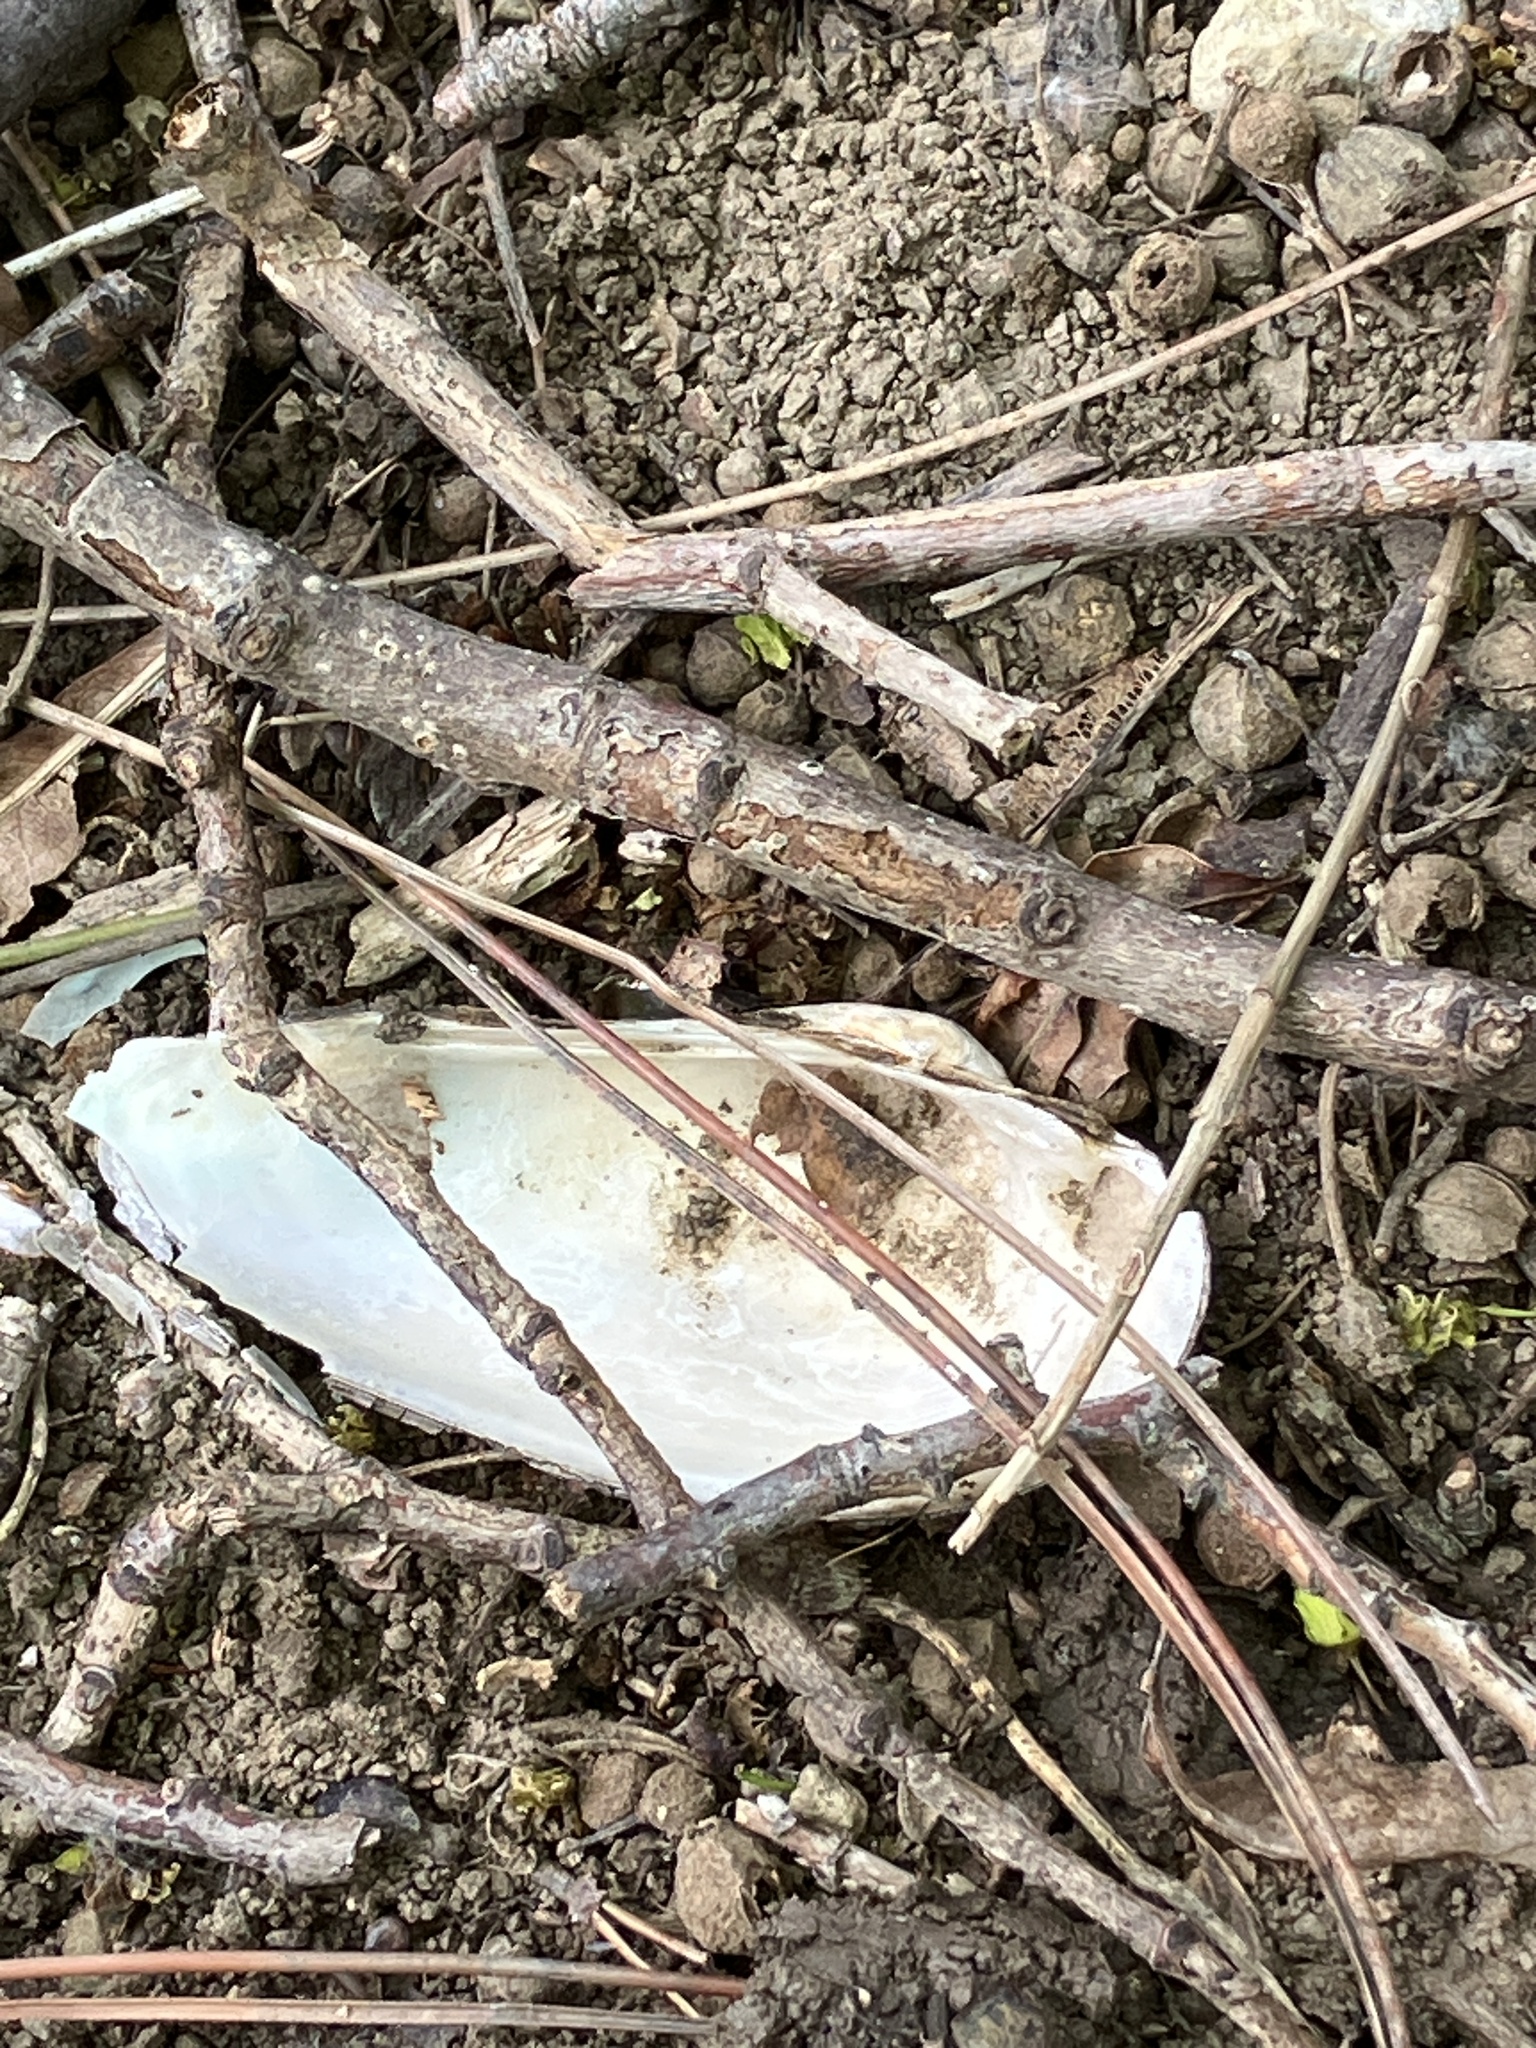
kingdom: Animalia
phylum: Mollusca
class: Bivalvia
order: Unionida
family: Unionidae
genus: Unio
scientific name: Unio pictorum
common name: Painter's mussel
